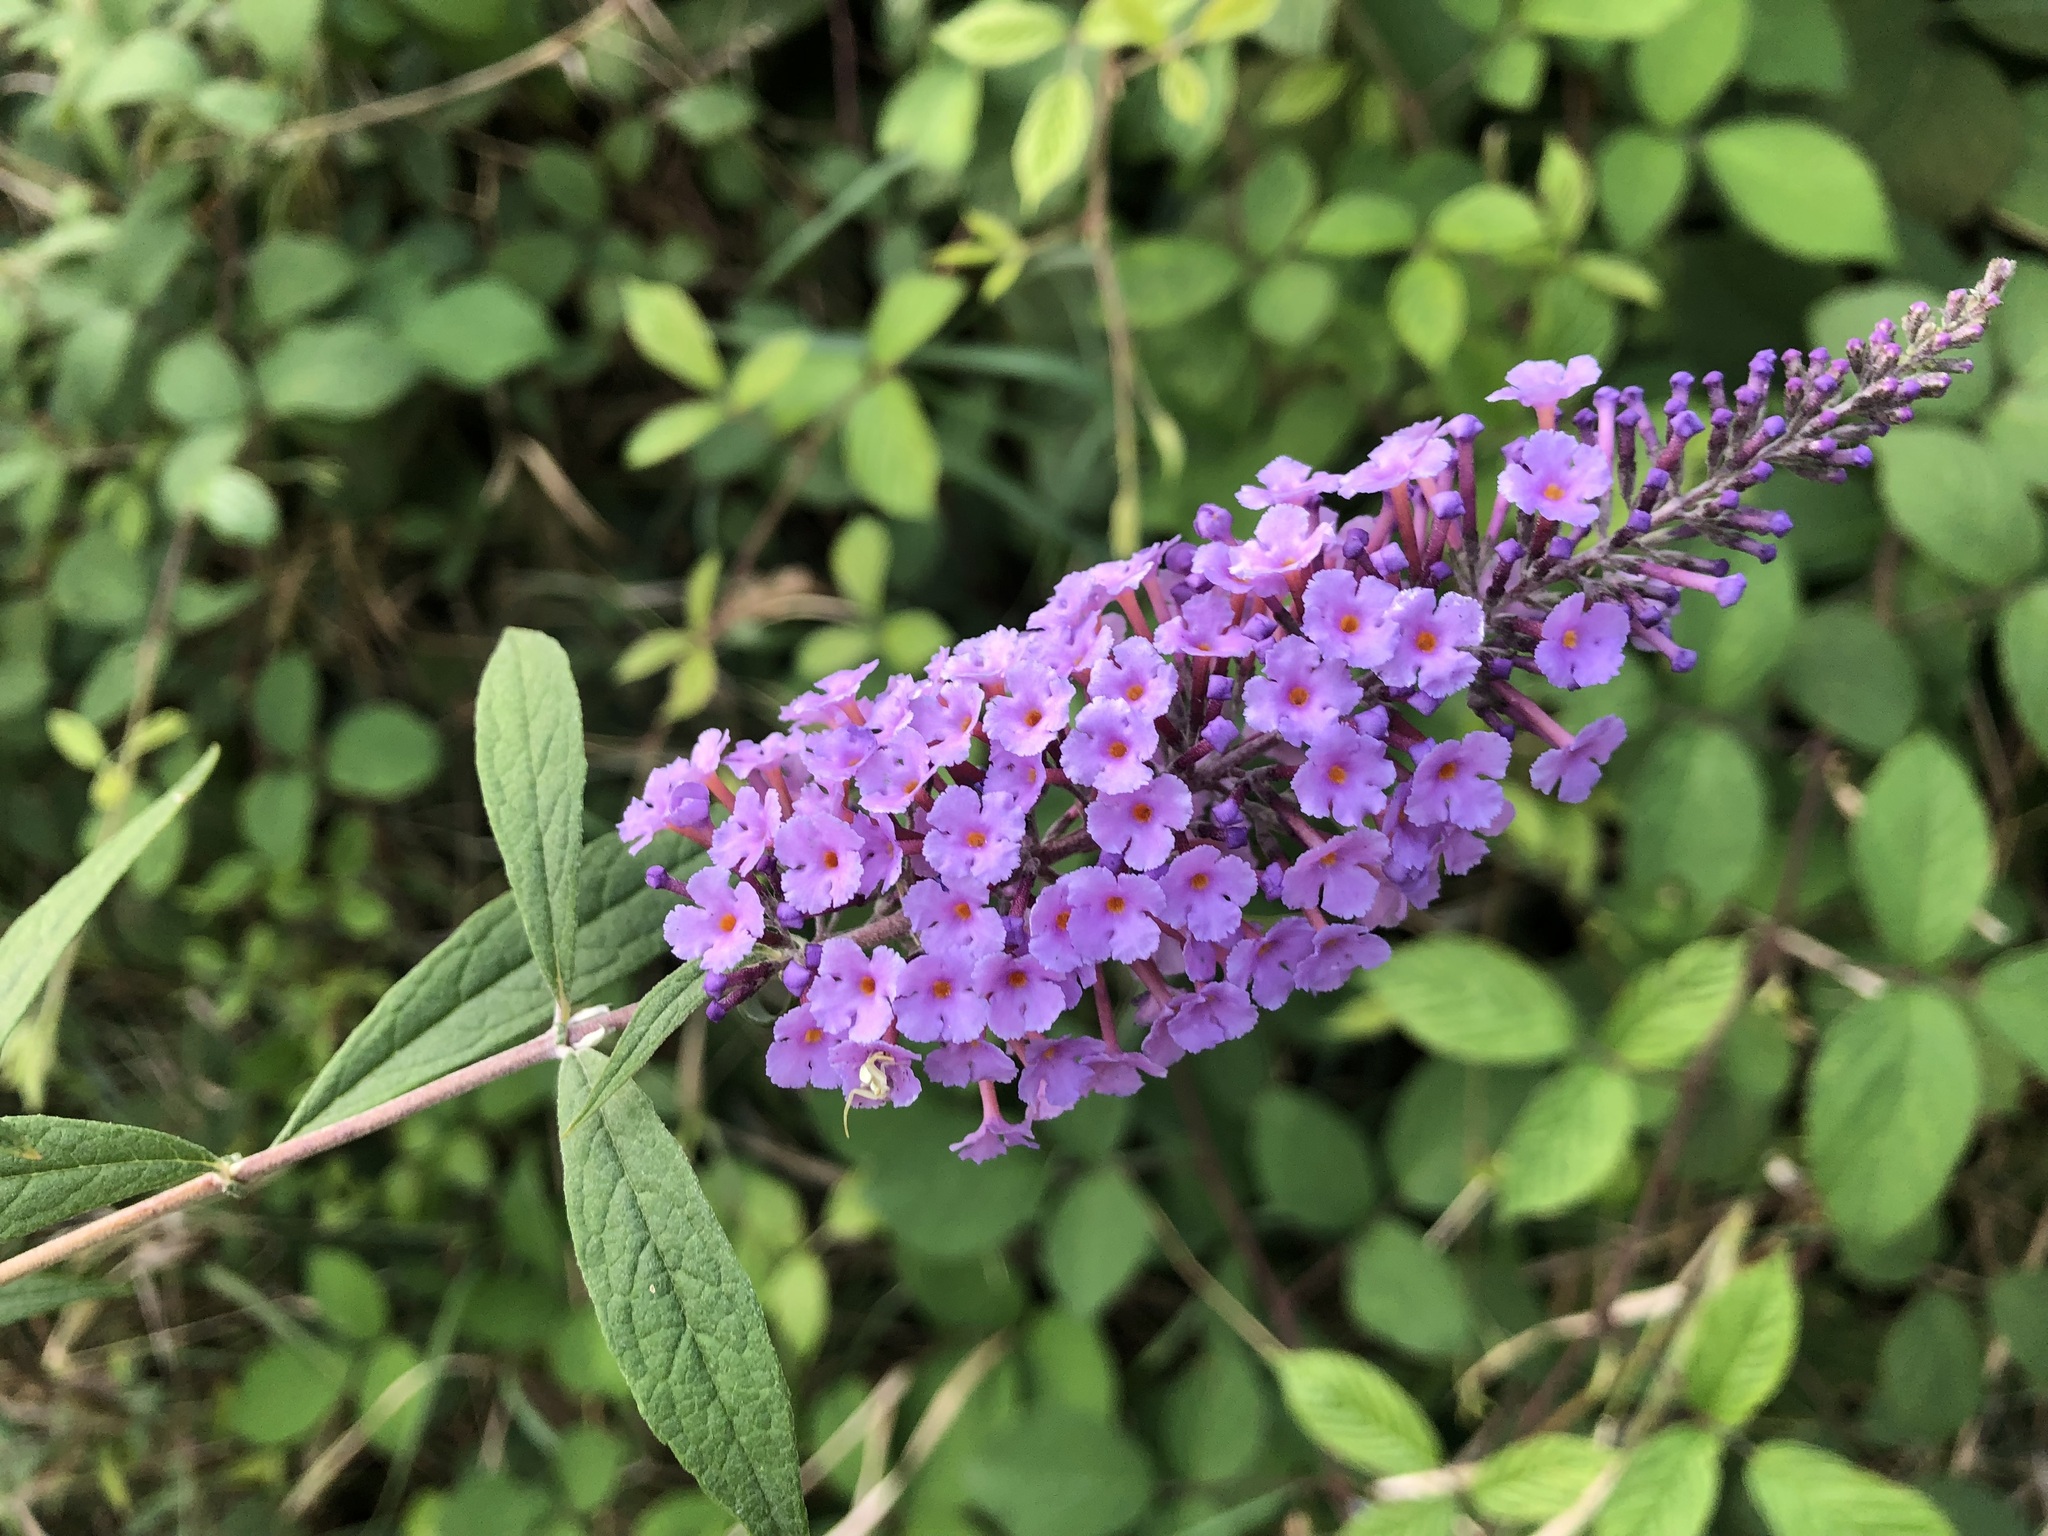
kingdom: Plantae
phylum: Tracheophyta
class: Magnoliopsida
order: Lamiales
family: Scrophulariaceae
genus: Buddleja
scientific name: Buddleja davidii
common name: Butterfly-bush
